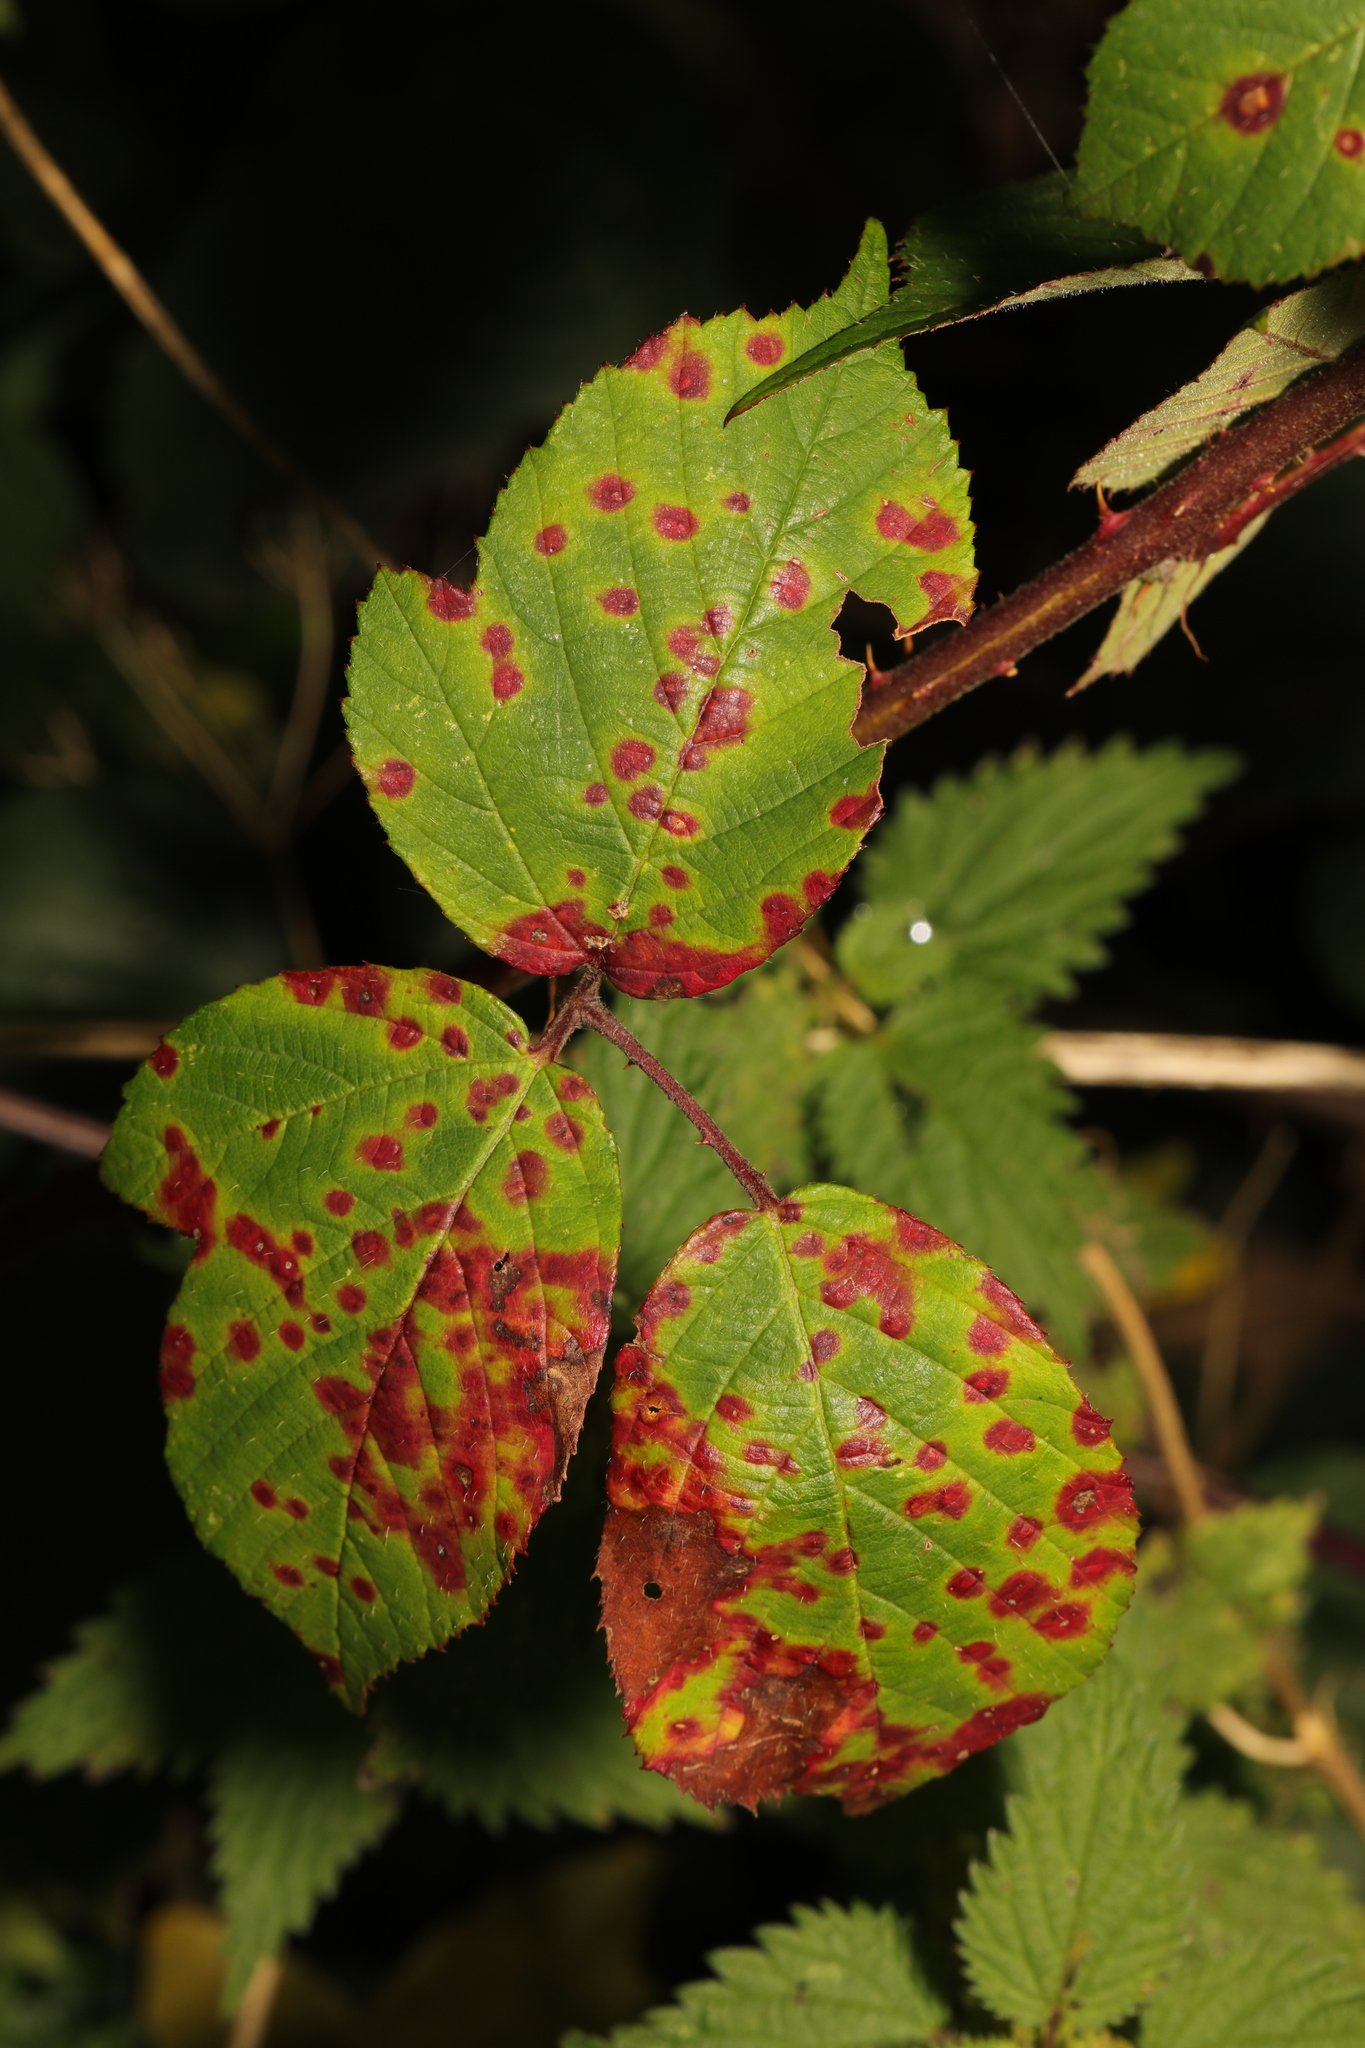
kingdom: Fungi
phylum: Basidiomycota
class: Pucciniomycetes
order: Pucciniales
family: Phragmidiaceae
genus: Phragmidium
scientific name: Phragmidium violaceum
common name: Violet bramble rust
